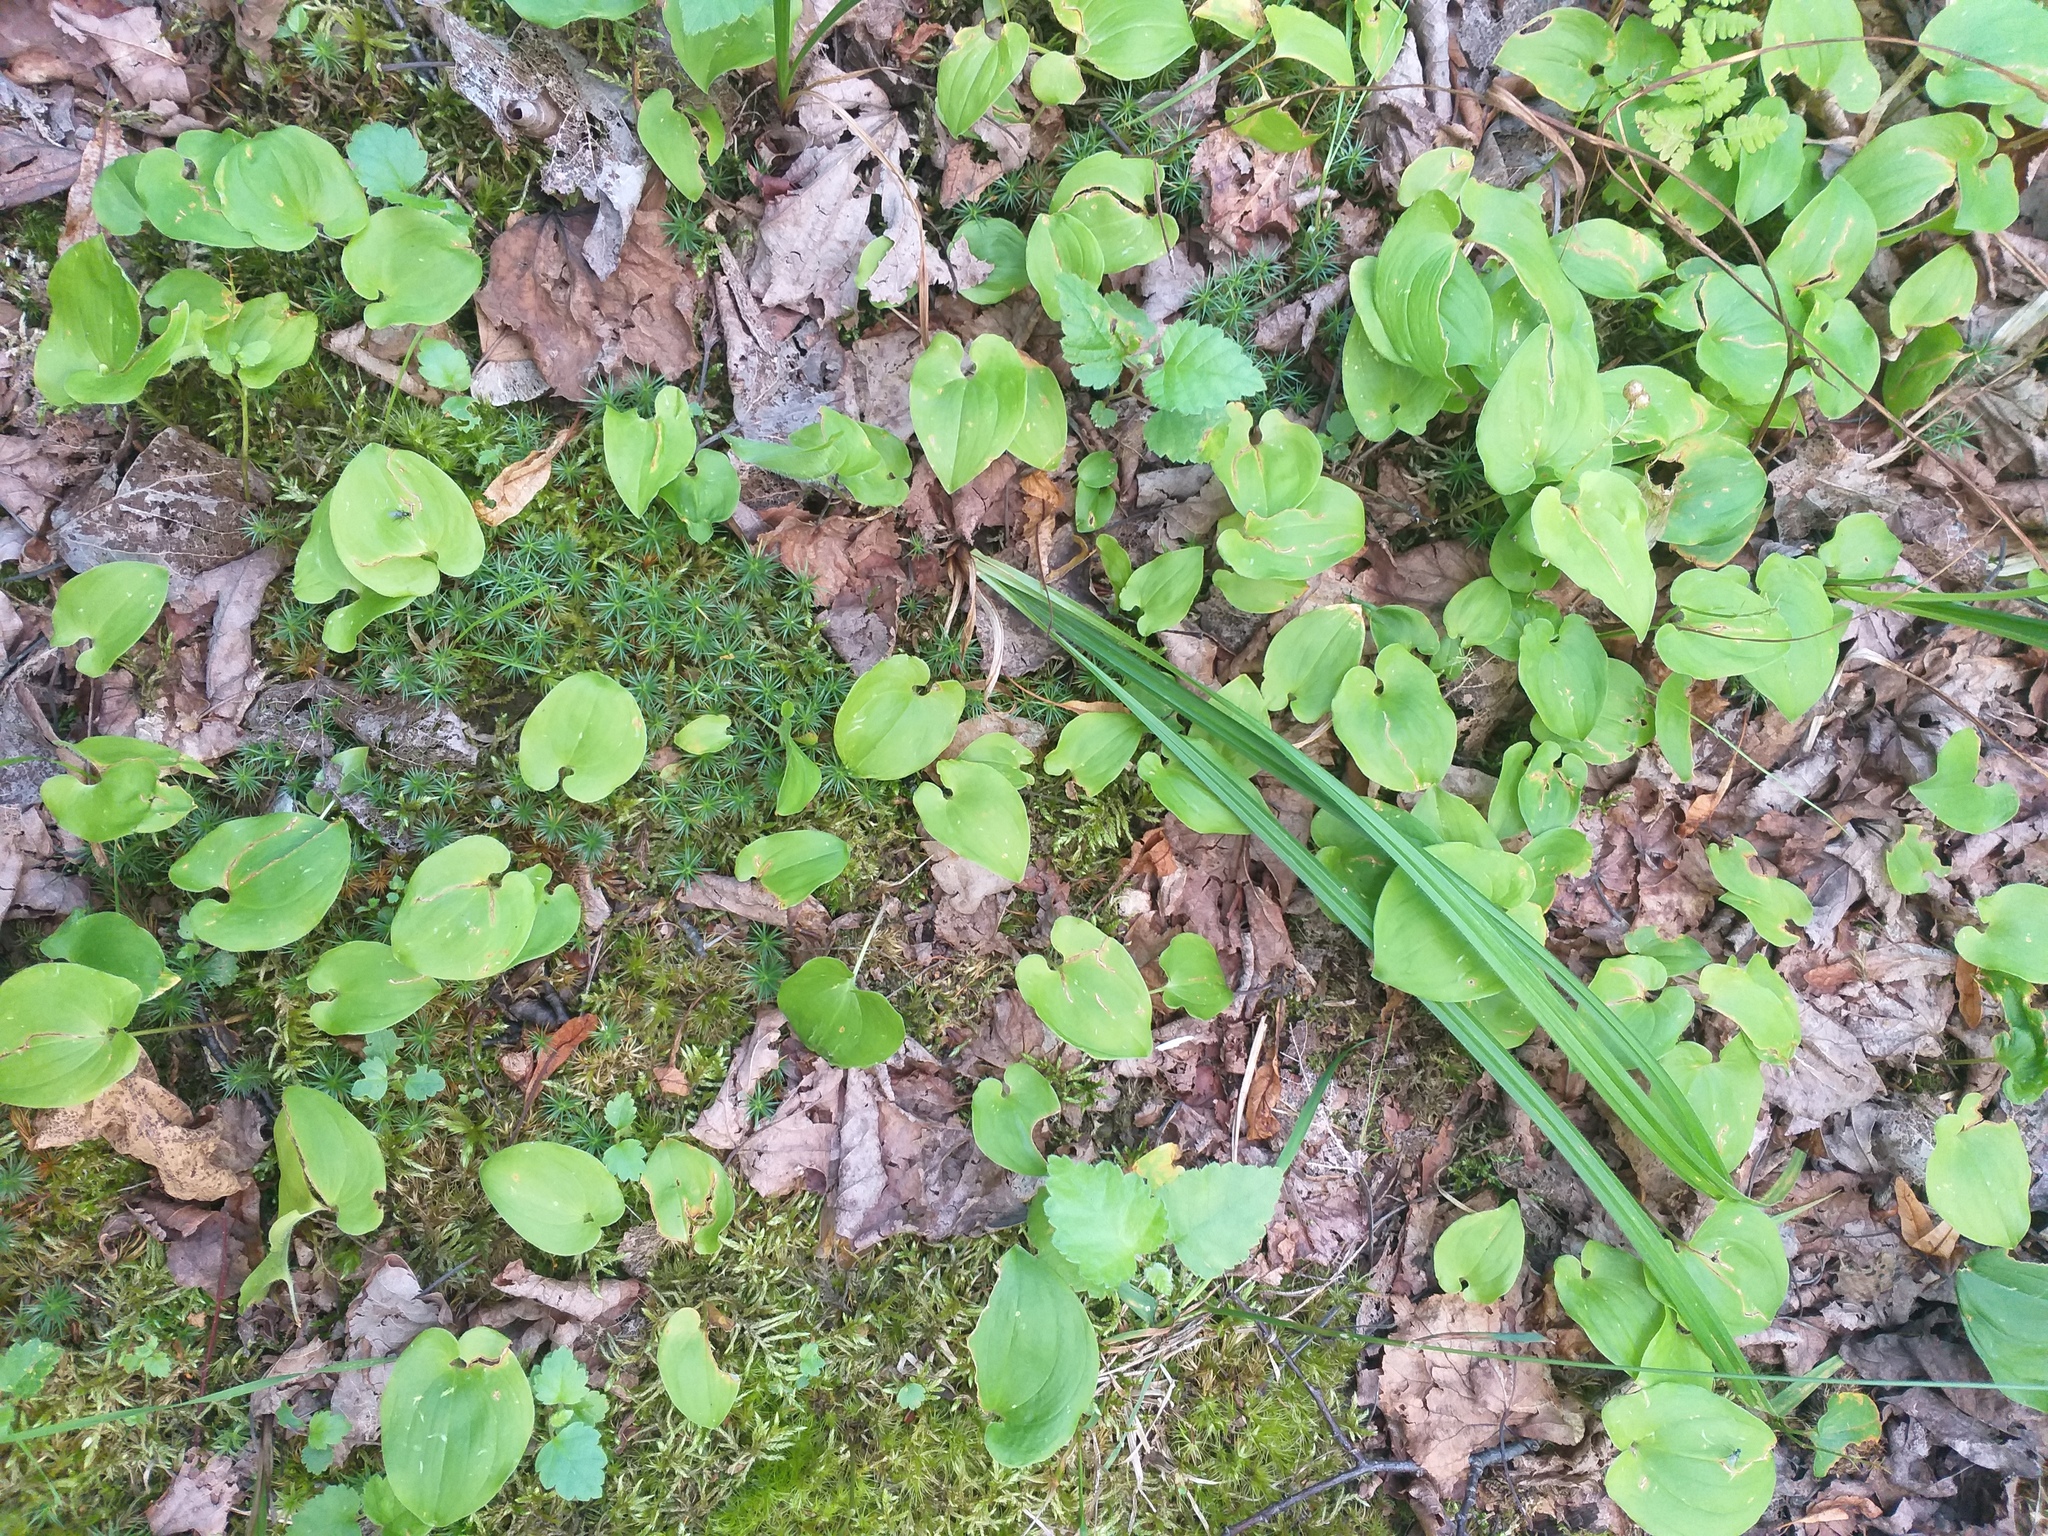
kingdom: Plantae
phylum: Tracheophyta
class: Liliopsida
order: Asparagales
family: Asparagaceae
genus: Maianthemum
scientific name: Maianthemum bifolium
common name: May lily
